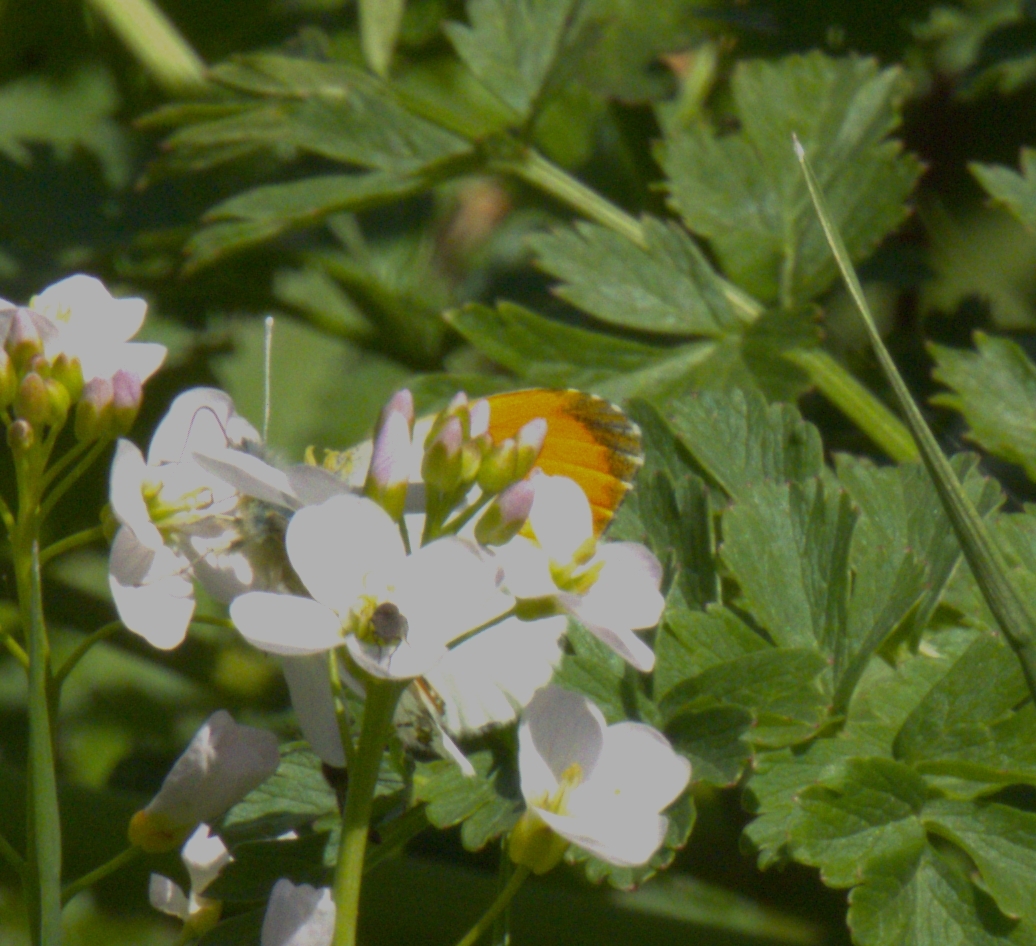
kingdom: Animalia
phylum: Arthropoda
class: Insecta
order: Lepidoptera
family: Pieridae
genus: Anthocharis
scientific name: Anthocharis cardamines
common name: Orange-tip
